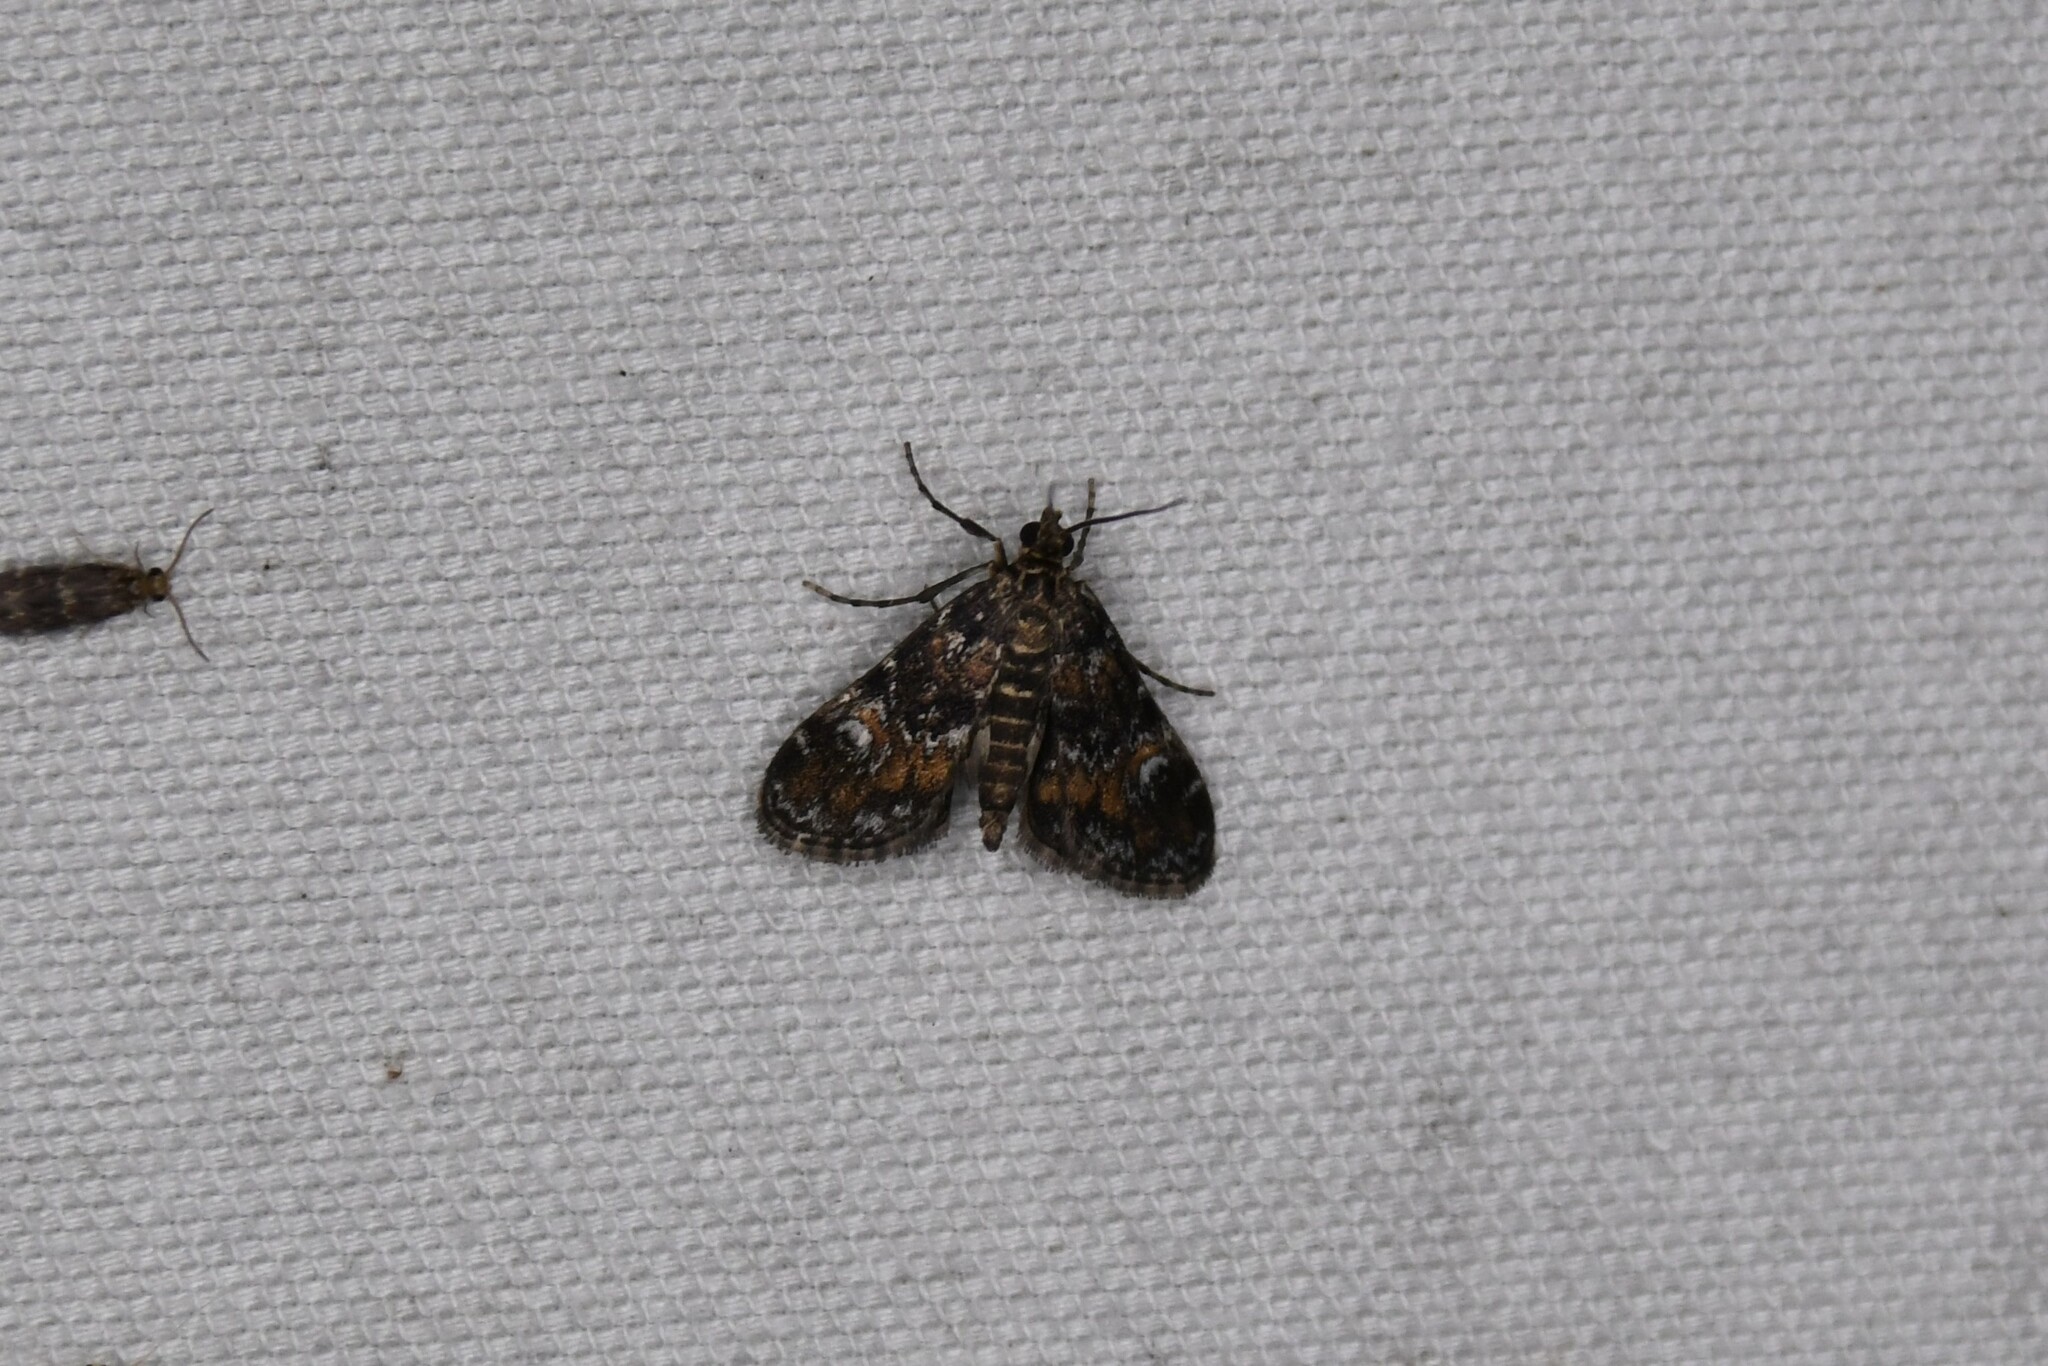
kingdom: Animalia
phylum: Arthropoda
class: Insecta
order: Lepidoptera
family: Crambidae
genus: Elophila
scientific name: Elophila obliteralis
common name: Waterlily leafcutter moth
